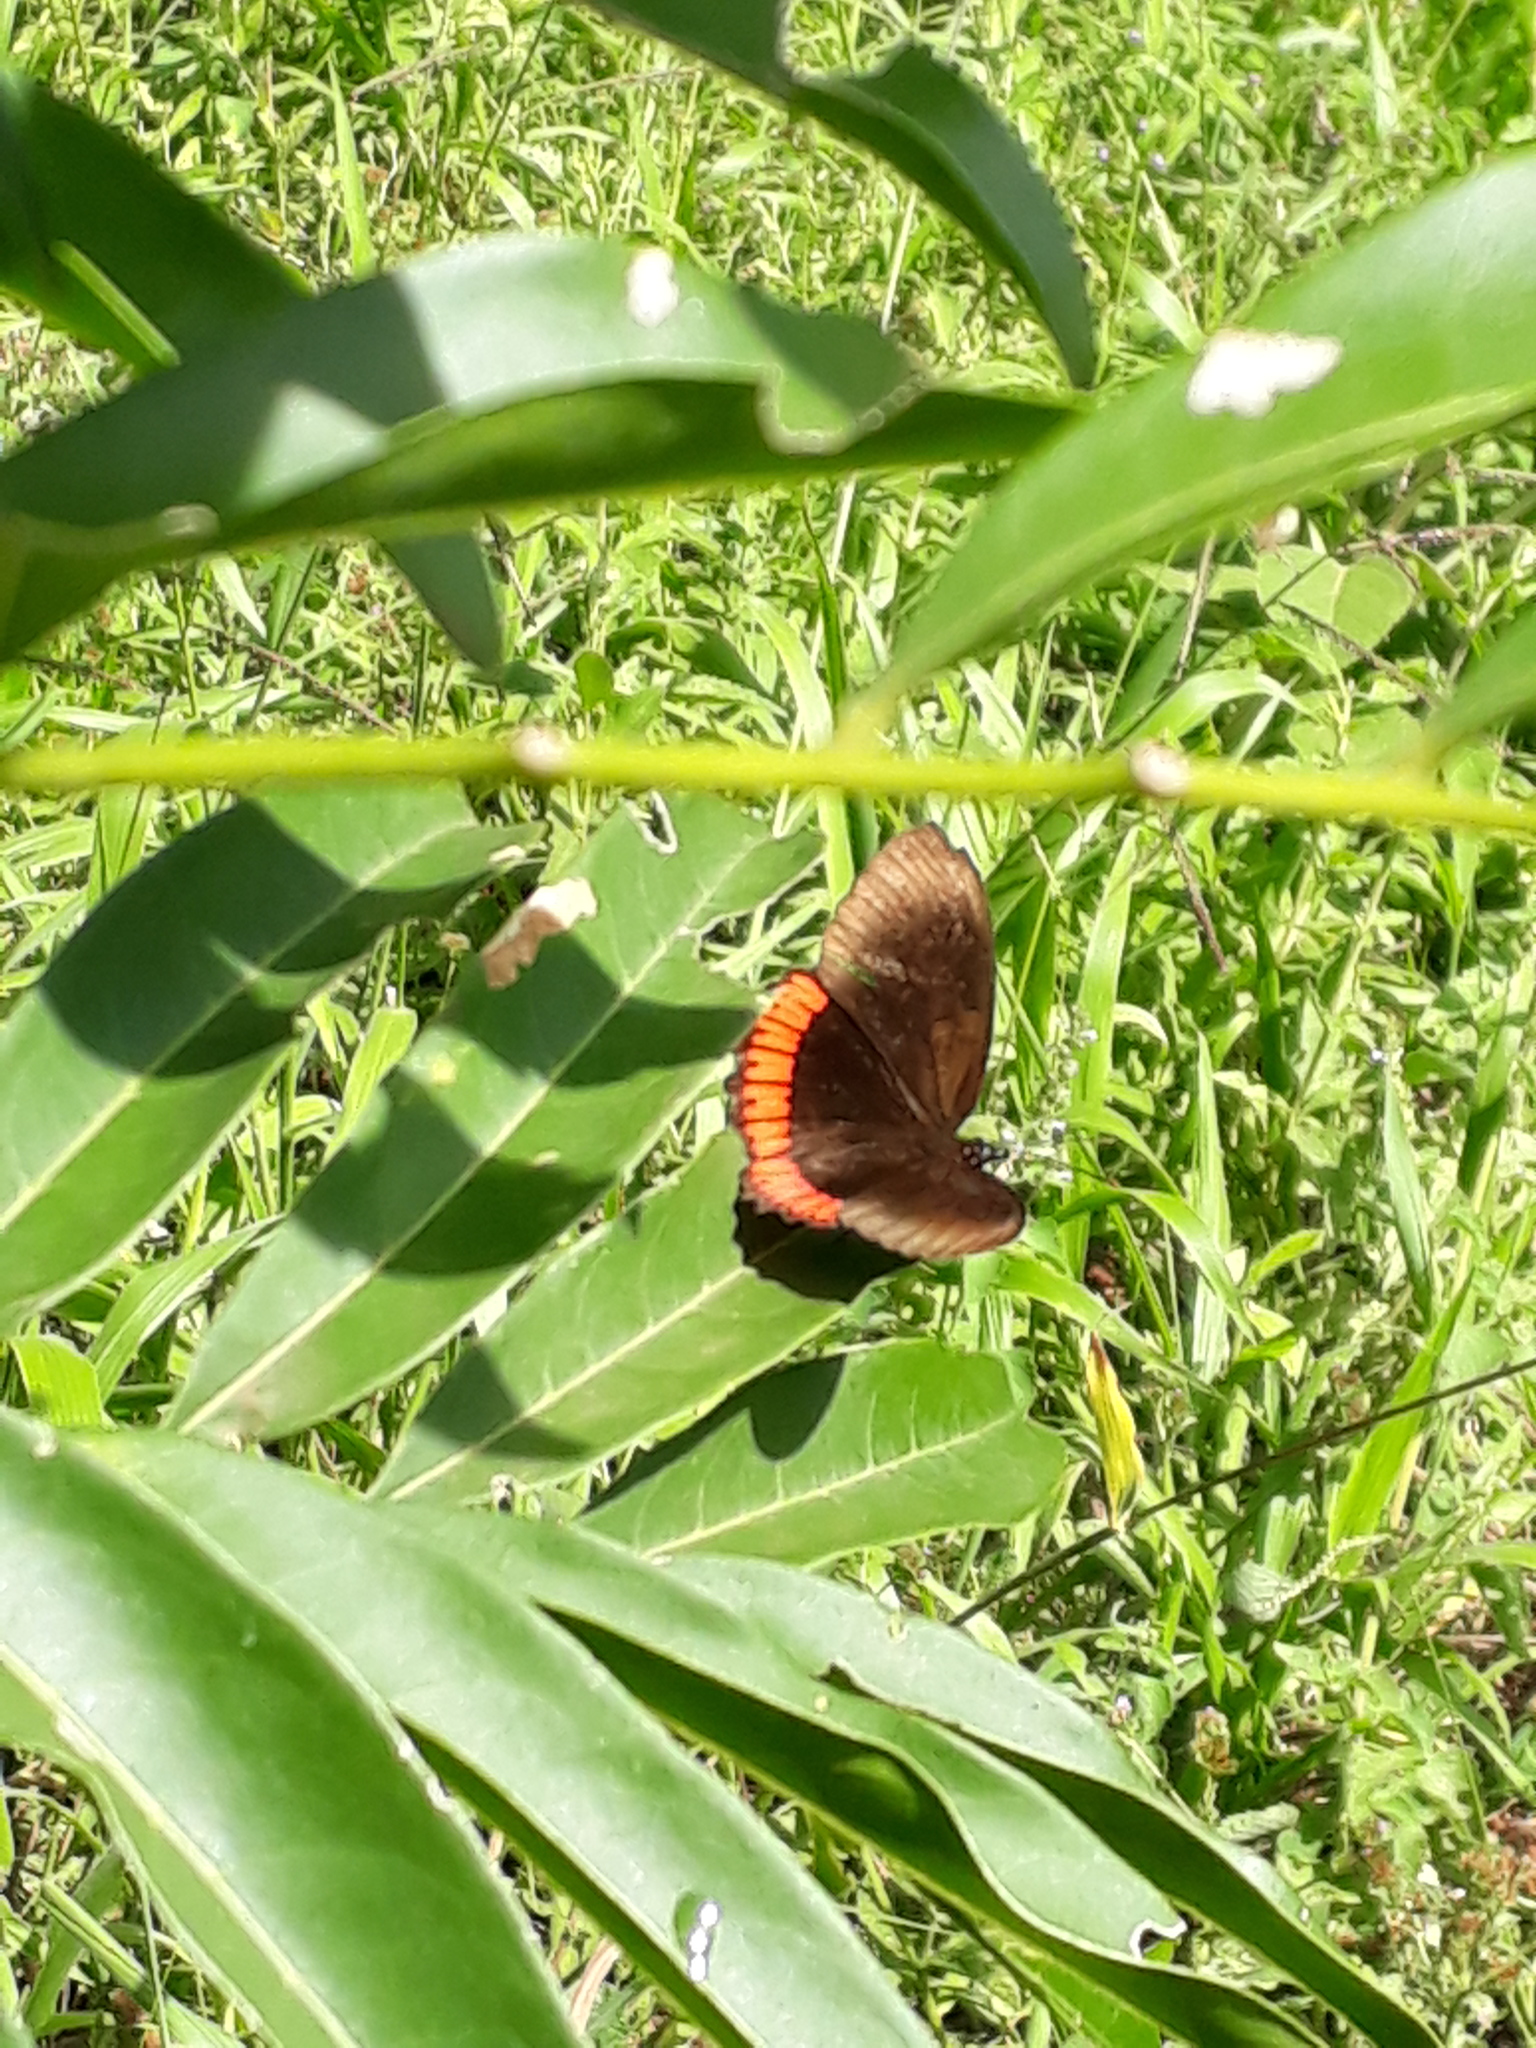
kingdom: Animalia
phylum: Arthropoda
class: Insecta
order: Lepidoptera
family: Sesiidae
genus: Sesia
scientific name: Sesia Biblis hyperia
